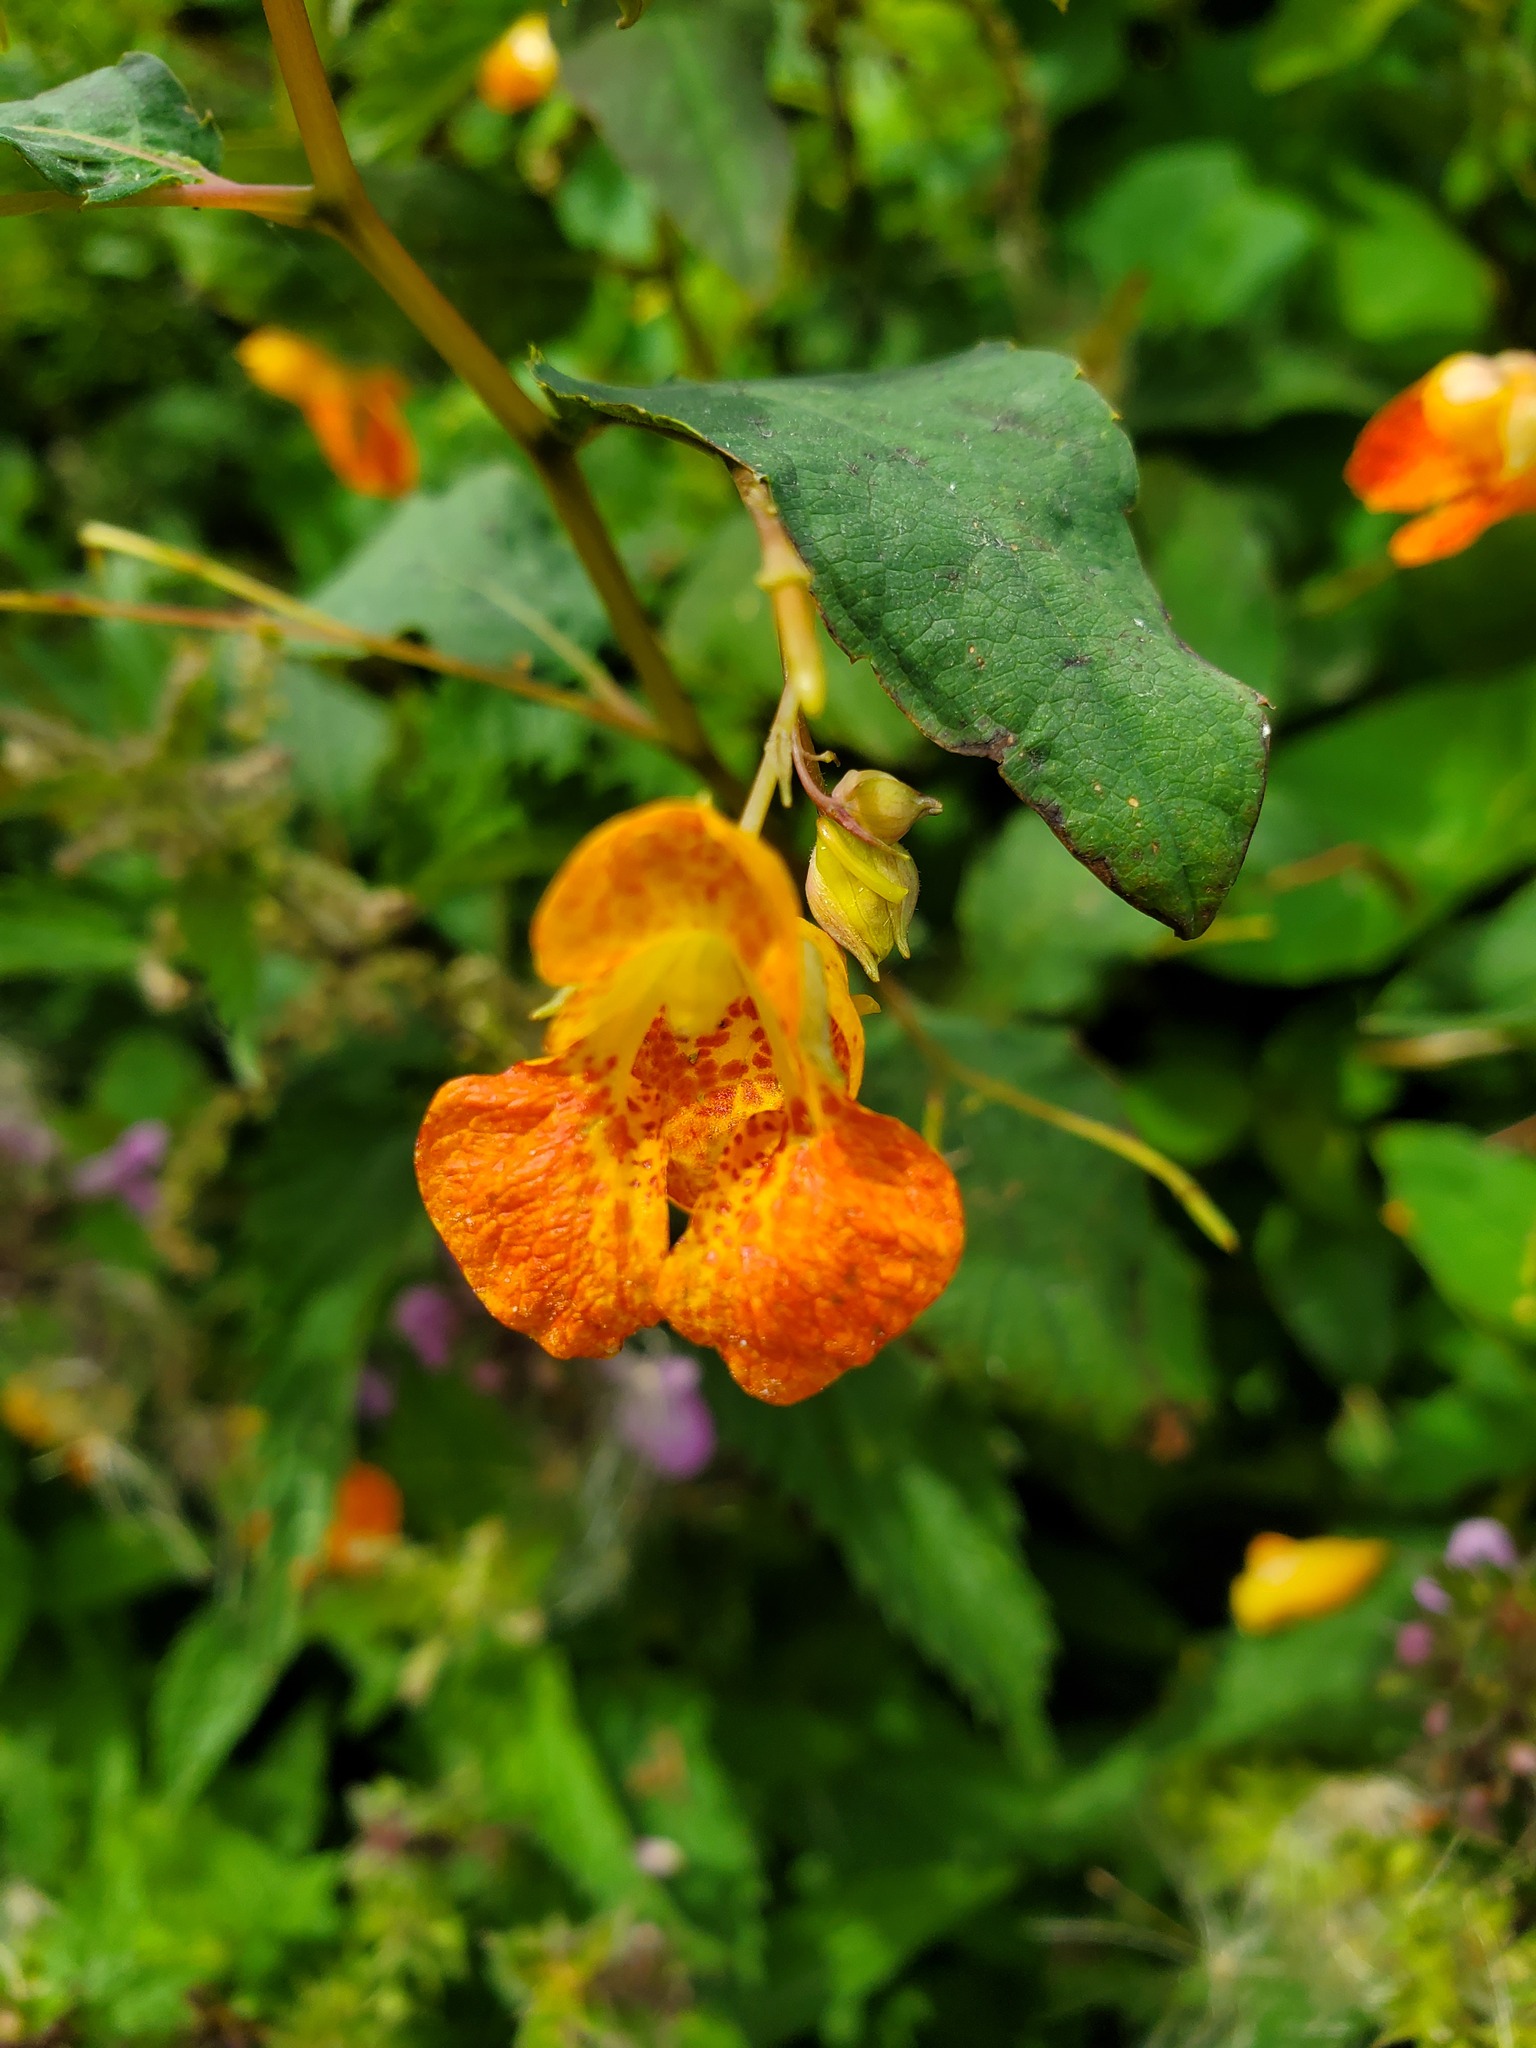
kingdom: Plantae
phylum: Tracheophyta
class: Magnoliopsida
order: Ericales
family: Balsaminaceae
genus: Impatiens
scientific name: Impatiens capensis
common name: Orange balsam
